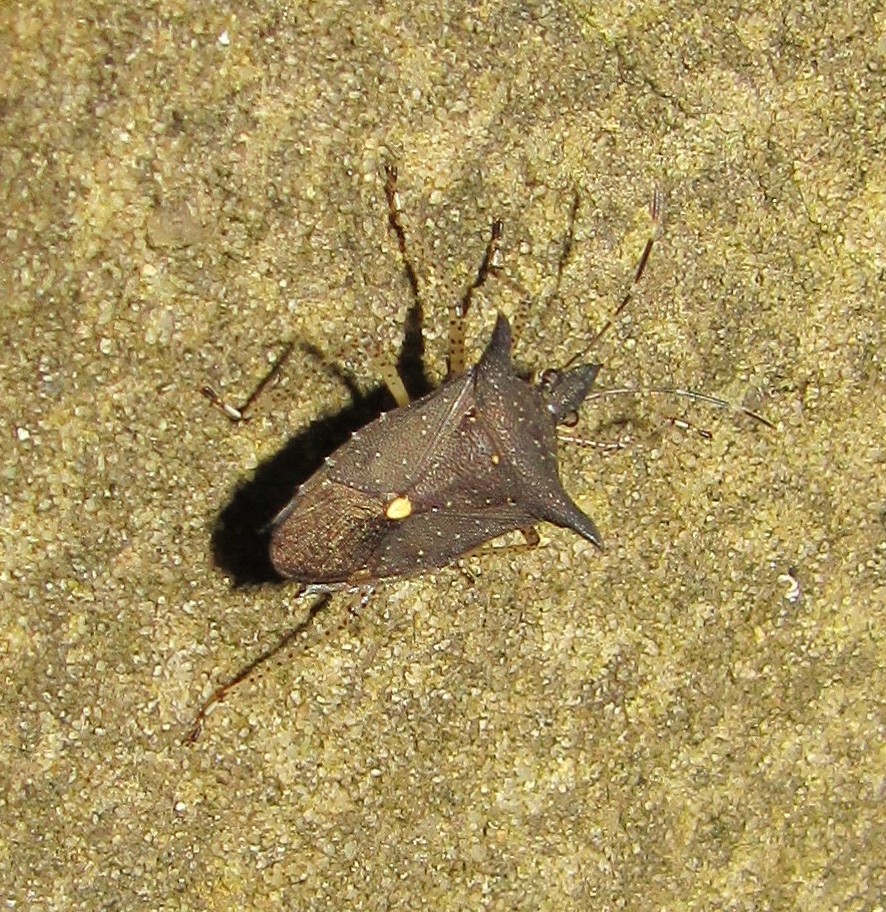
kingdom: Animalia
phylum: Arthropoda
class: Insecta
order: Hemiptera
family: Pentatomidae
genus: Proxys
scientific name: Proxys albopunctulatus
